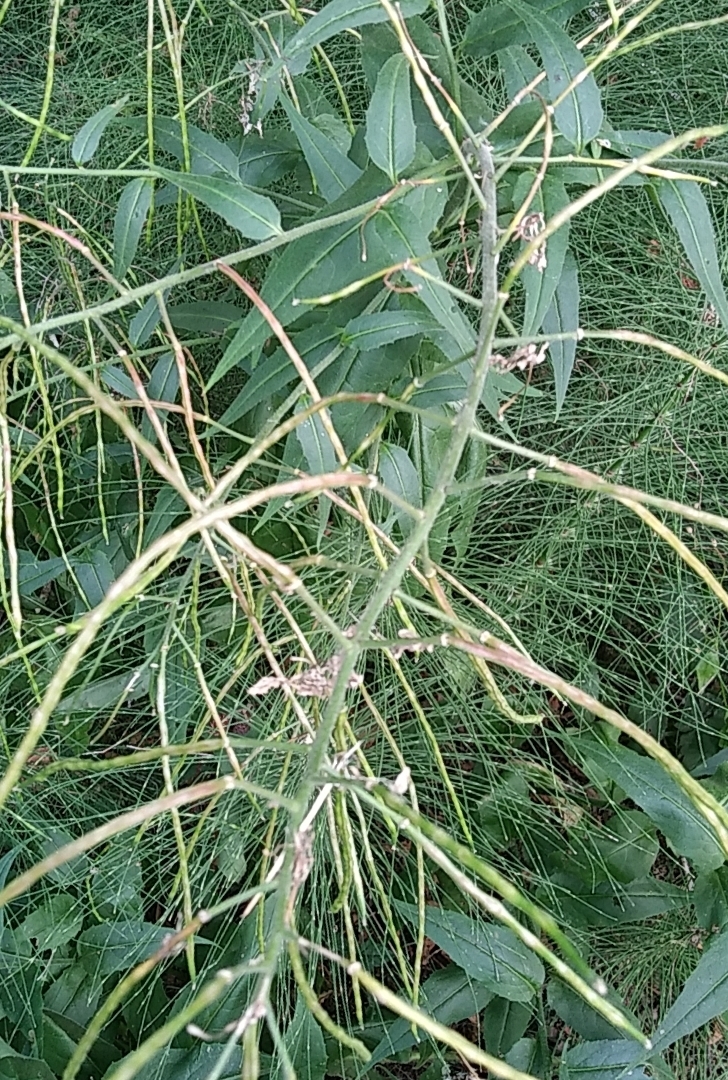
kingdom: Plantae
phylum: Tracheophyta
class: Magnoliopsida
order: Brassicales
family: Brassicaceae
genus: Hesperis
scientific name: Hesperis matronalis
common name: Dame's-violet
